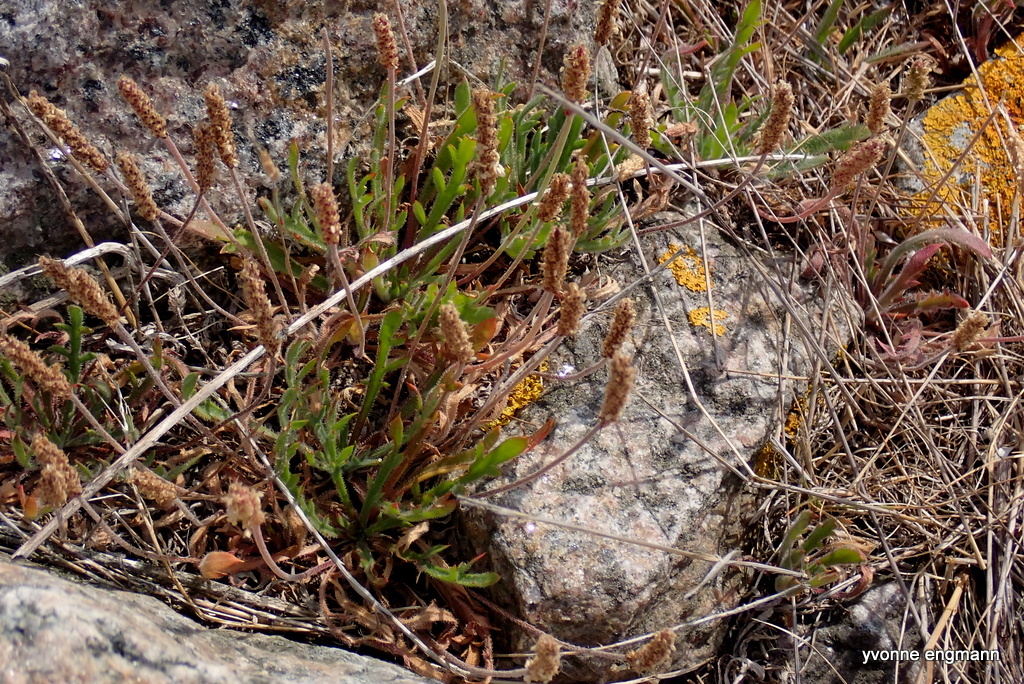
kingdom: Plantae
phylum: Tracheophyta
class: Magnoliopsida
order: Lamiales
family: Plantaginaceae
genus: Plantago
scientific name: Plantago coronopus
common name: Buck's-horn plantain
